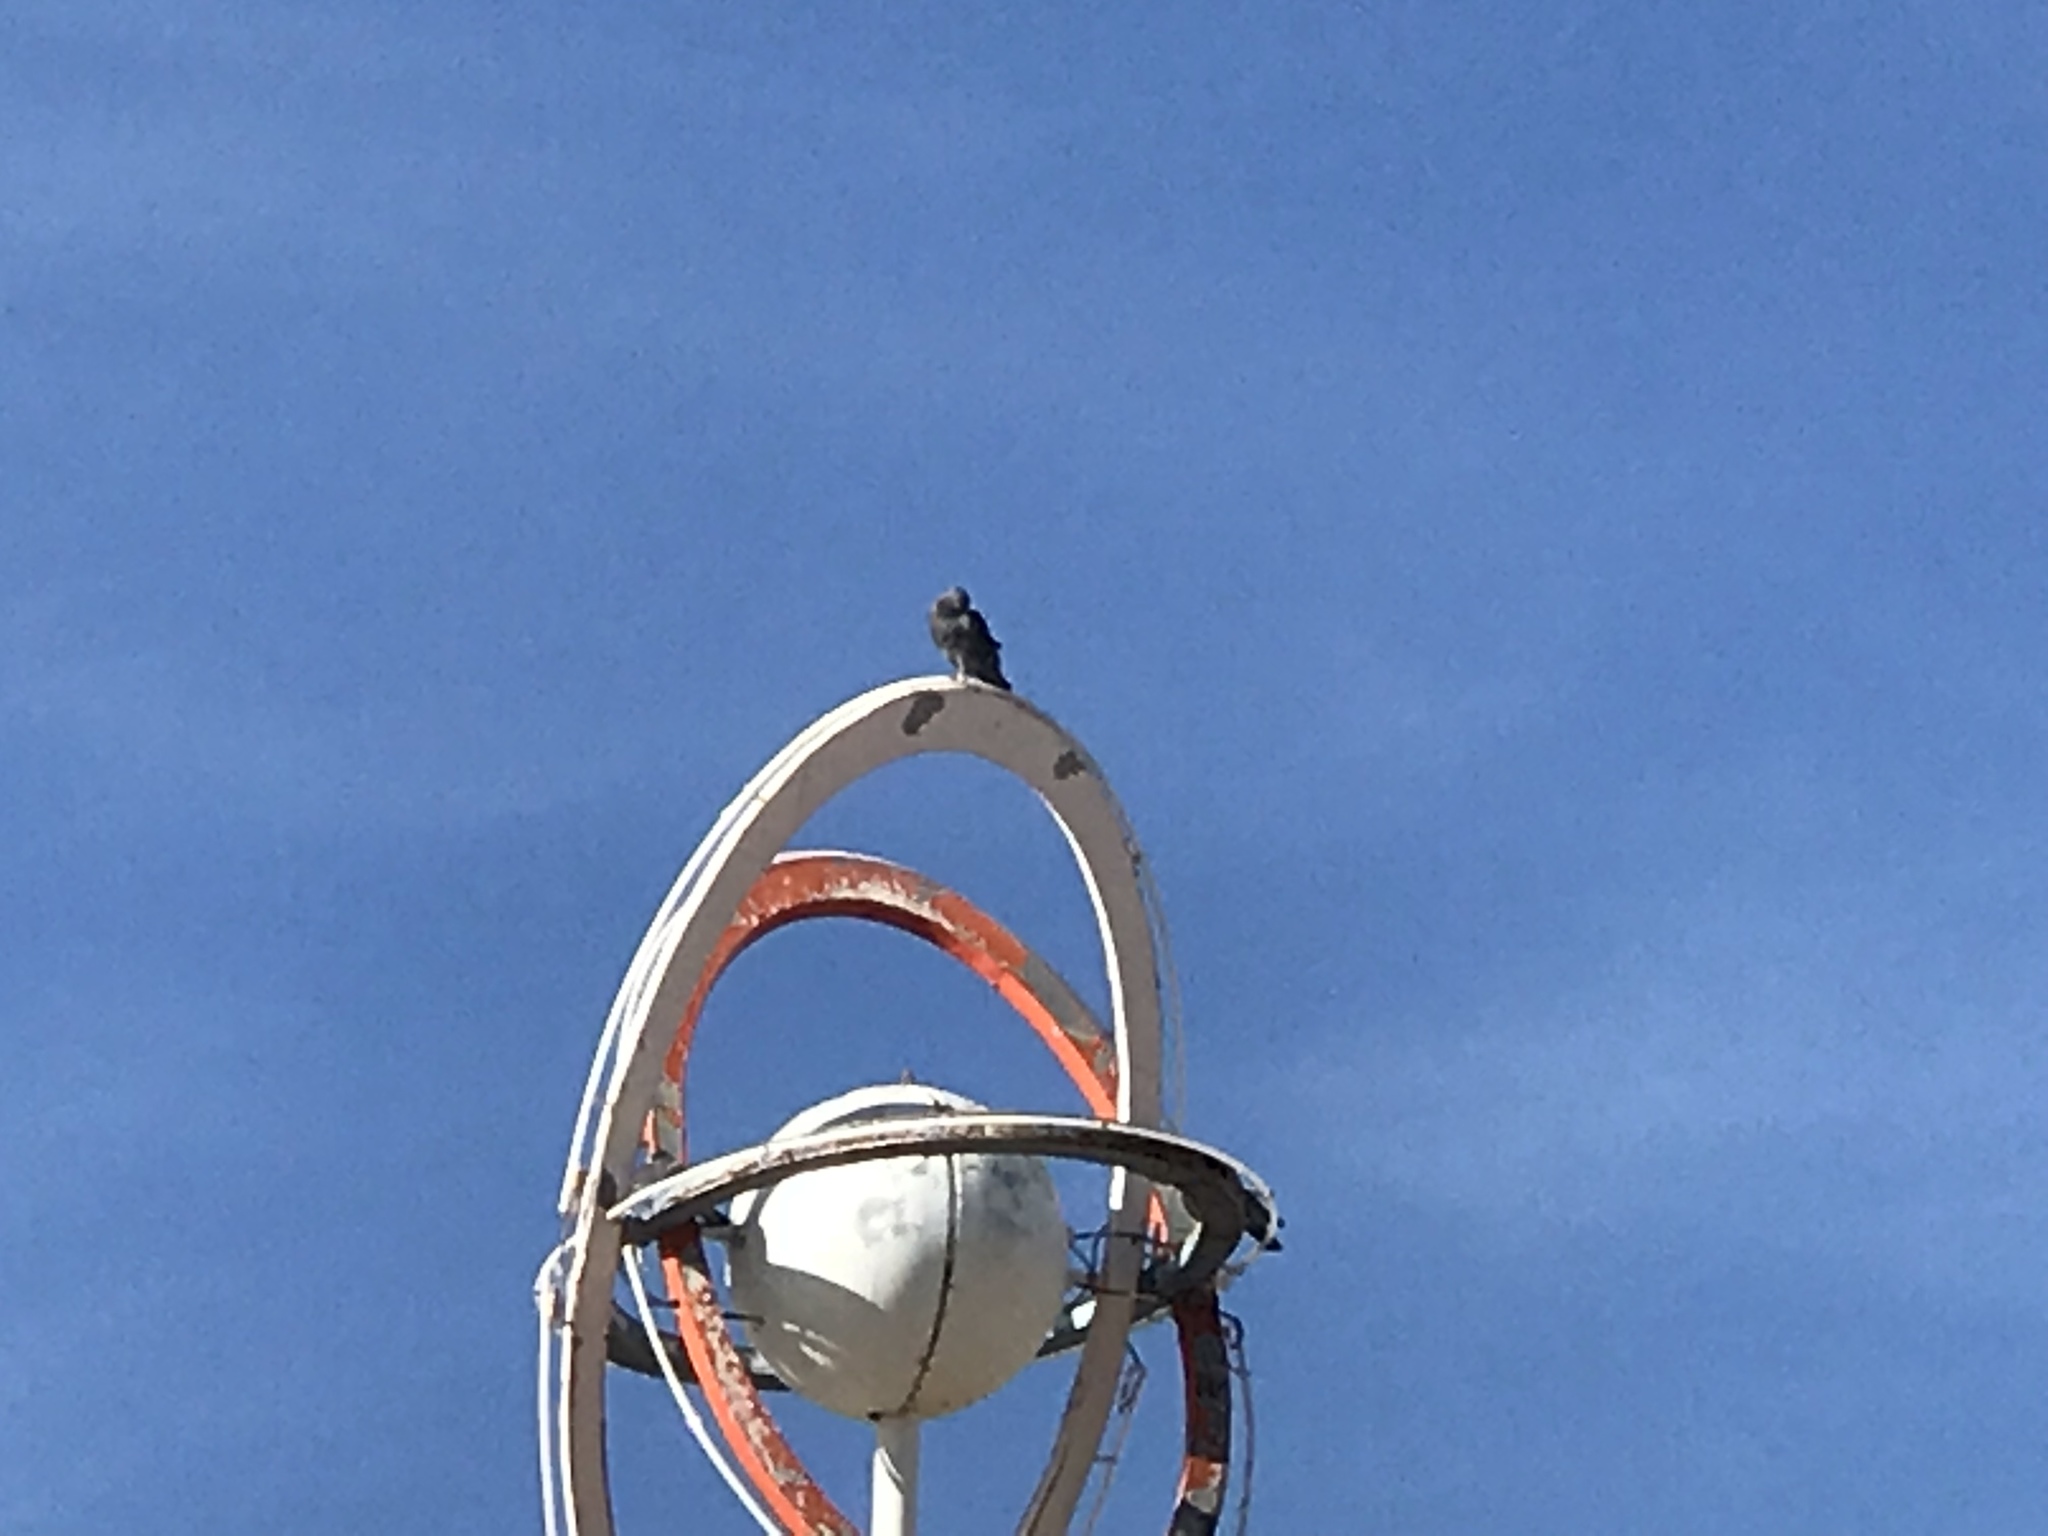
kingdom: Animalia
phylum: Chordata
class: Aves
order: Columbiformes
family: Columbidae
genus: Columba
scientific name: Columba livia
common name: Rock pigeon
